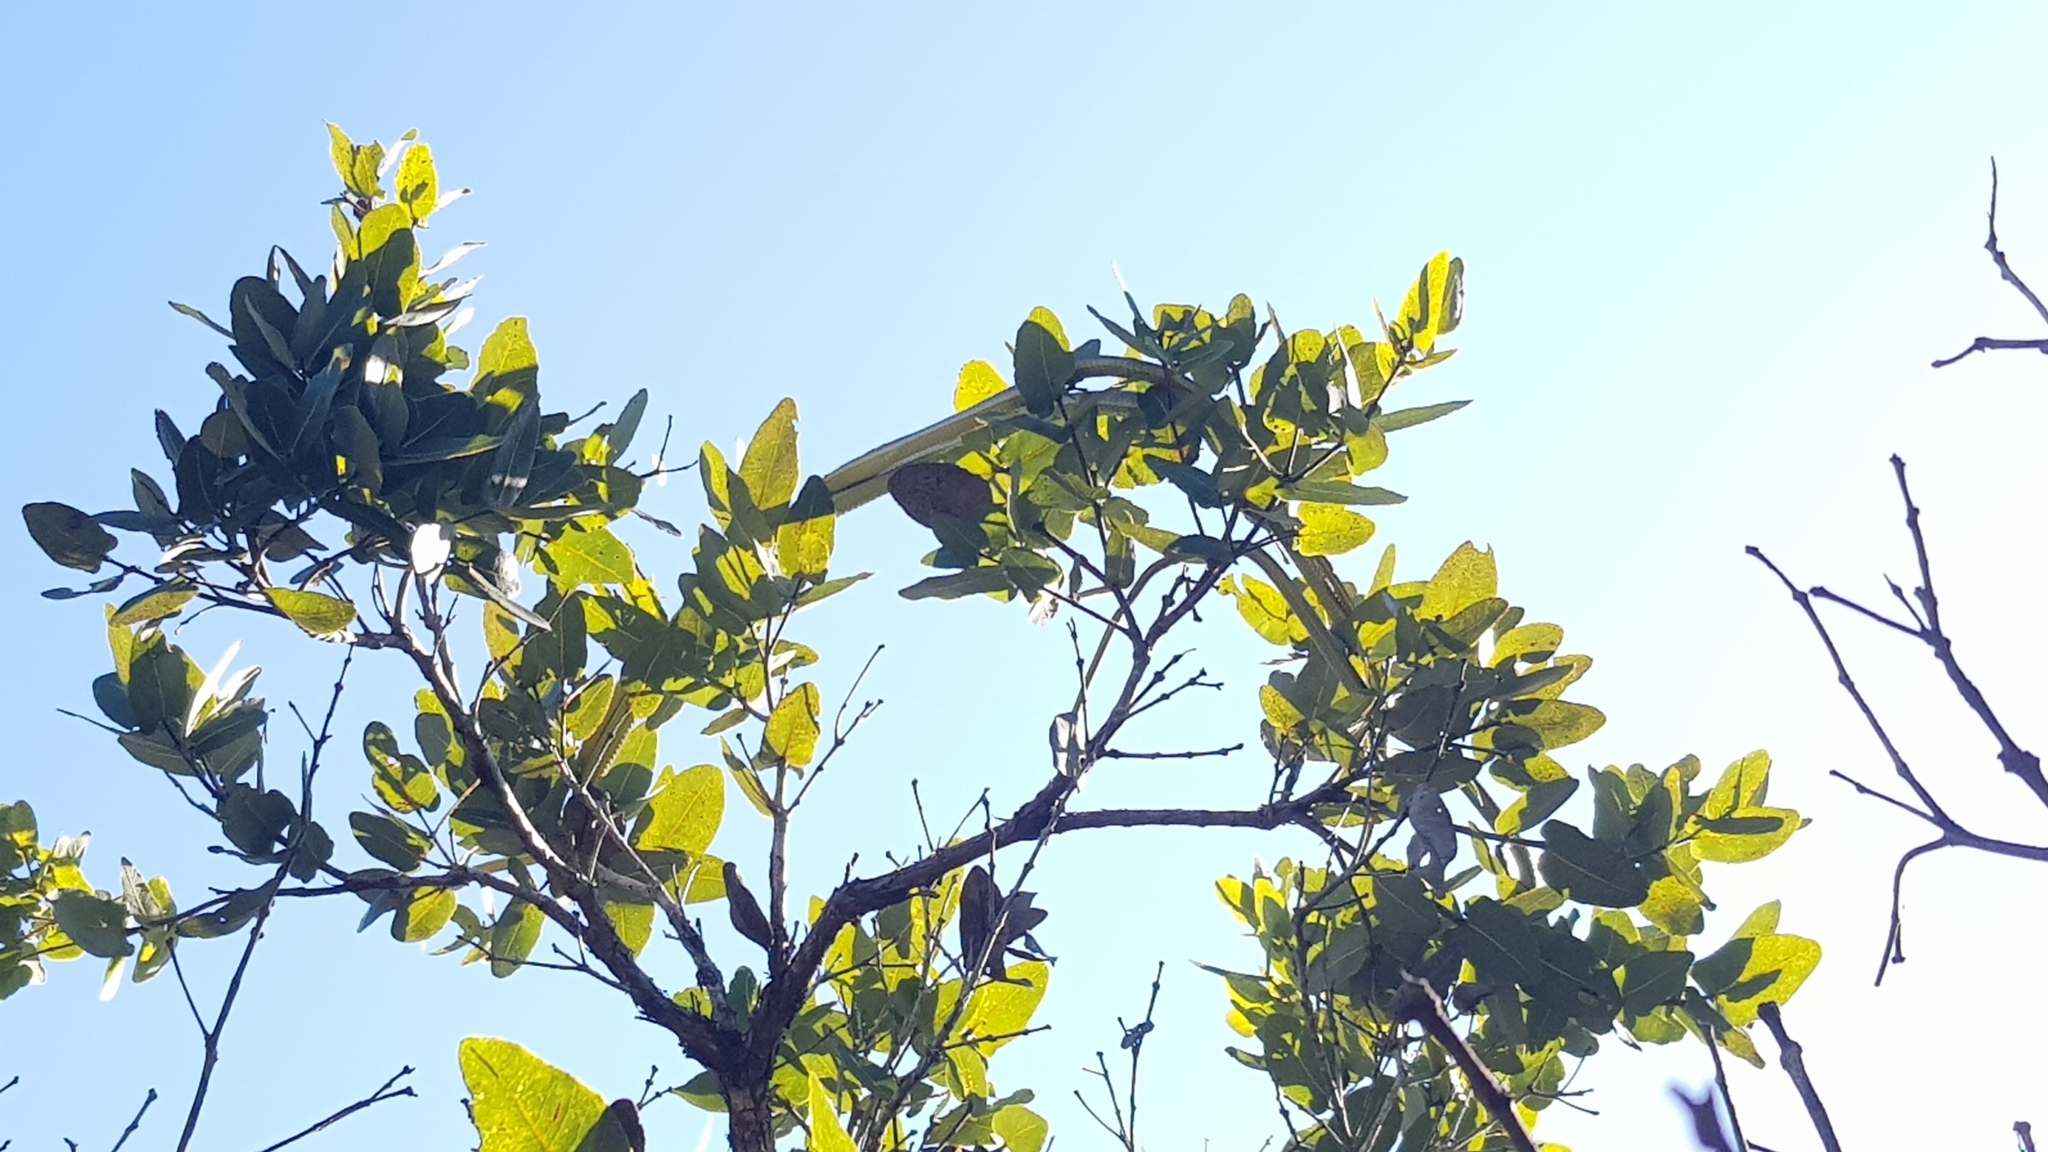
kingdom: Animalia
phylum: Chordata
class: Squamata
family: Colubridae
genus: Dendrelaphis
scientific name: Dendrelaphis punctulatus
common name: Common tree snake
